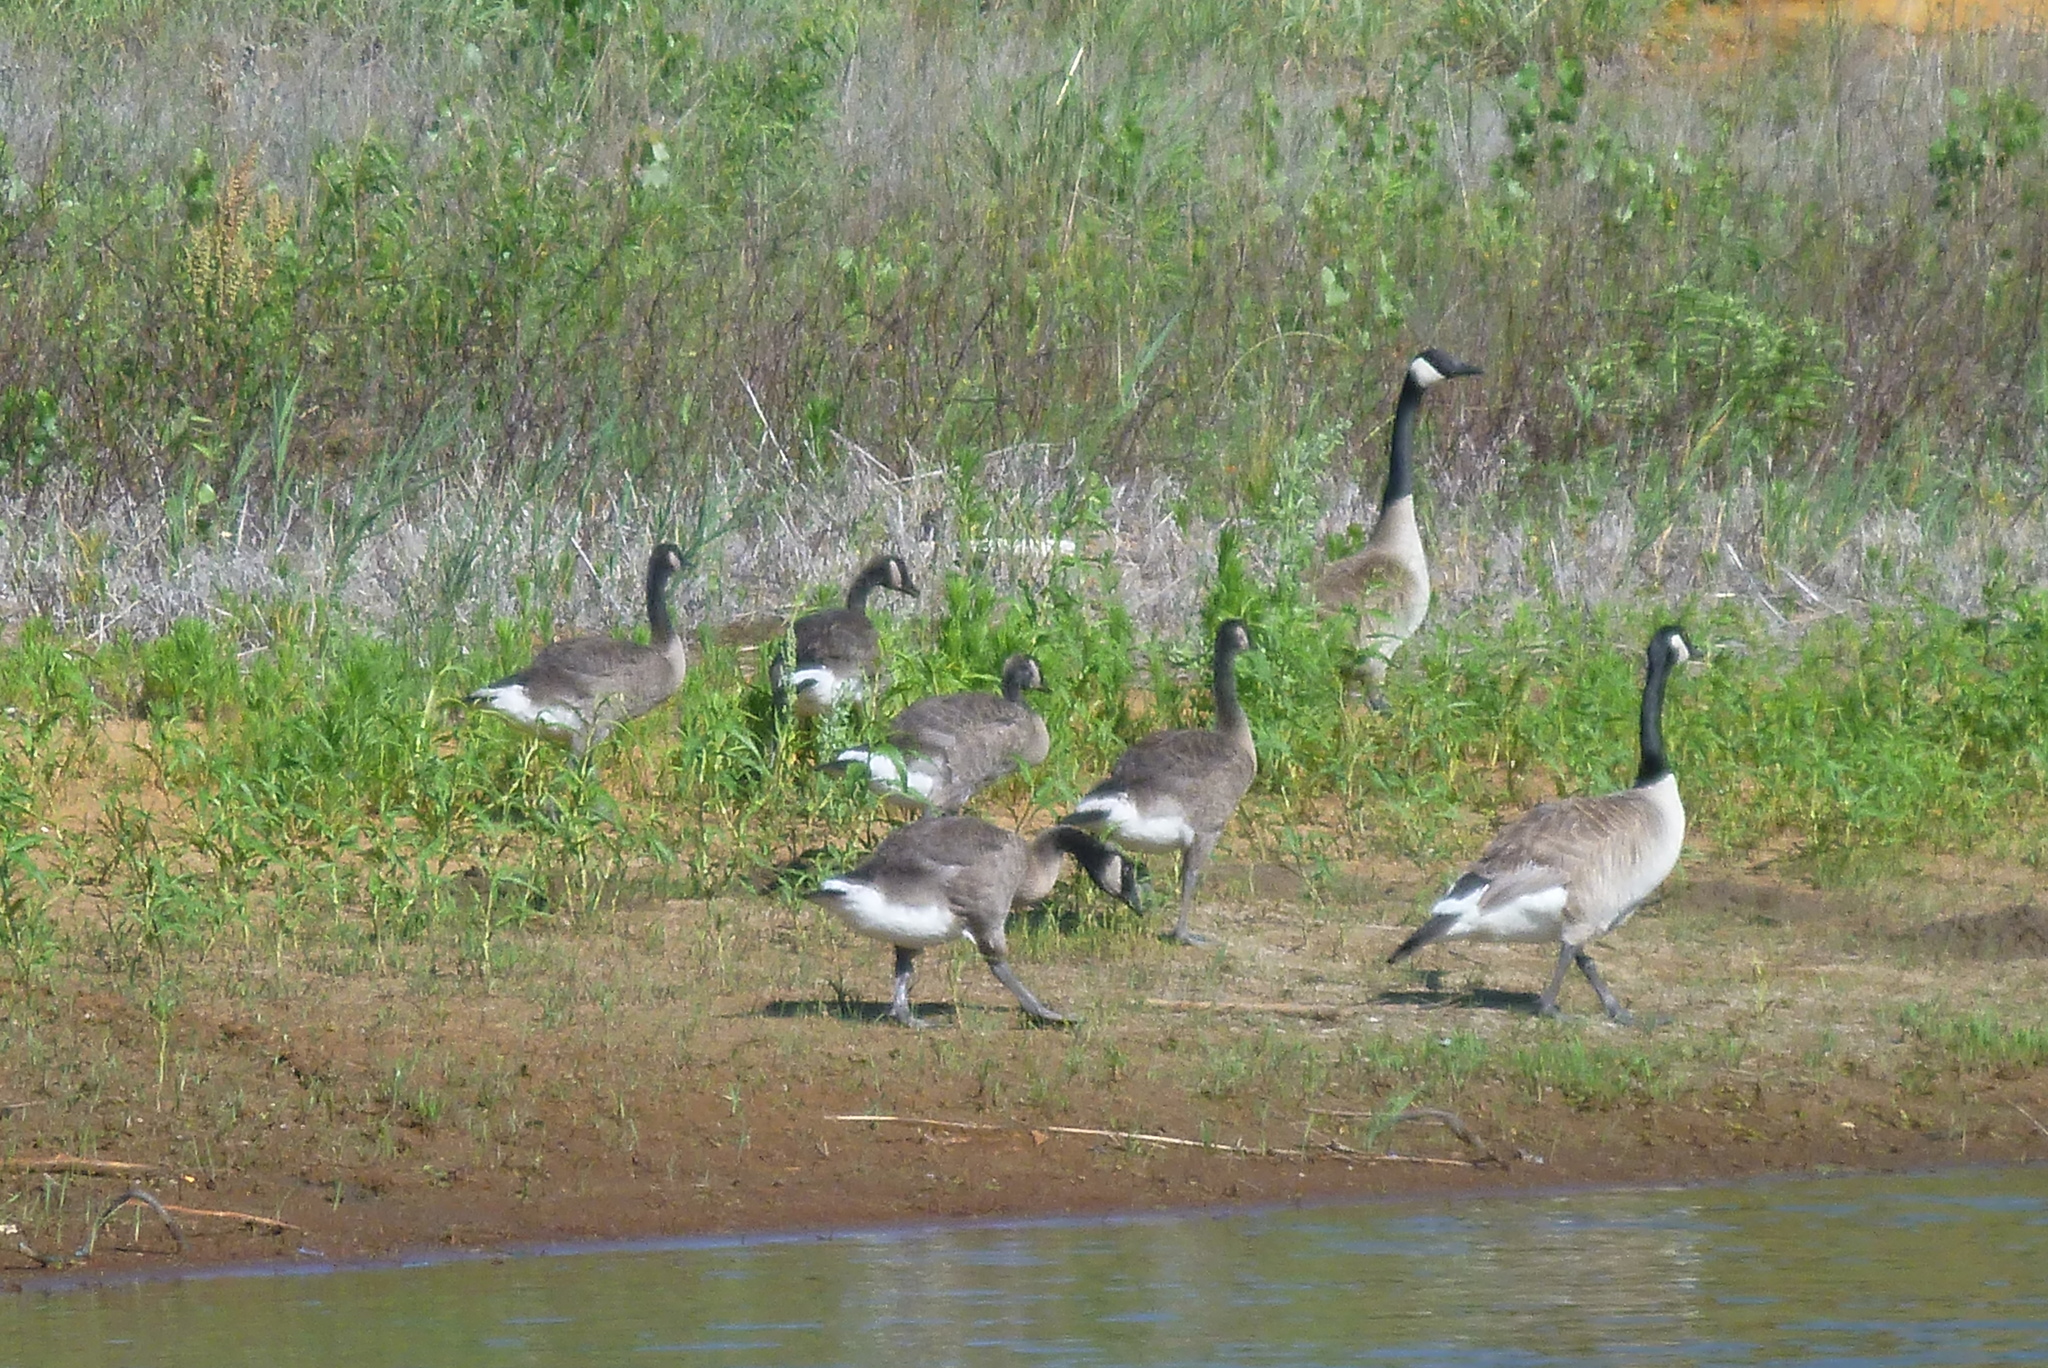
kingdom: Animalia
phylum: Chordata
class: Aves
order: Anseriformes
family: Anatidae
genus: Branta
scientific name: Branta canadensis
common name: Canada goose
